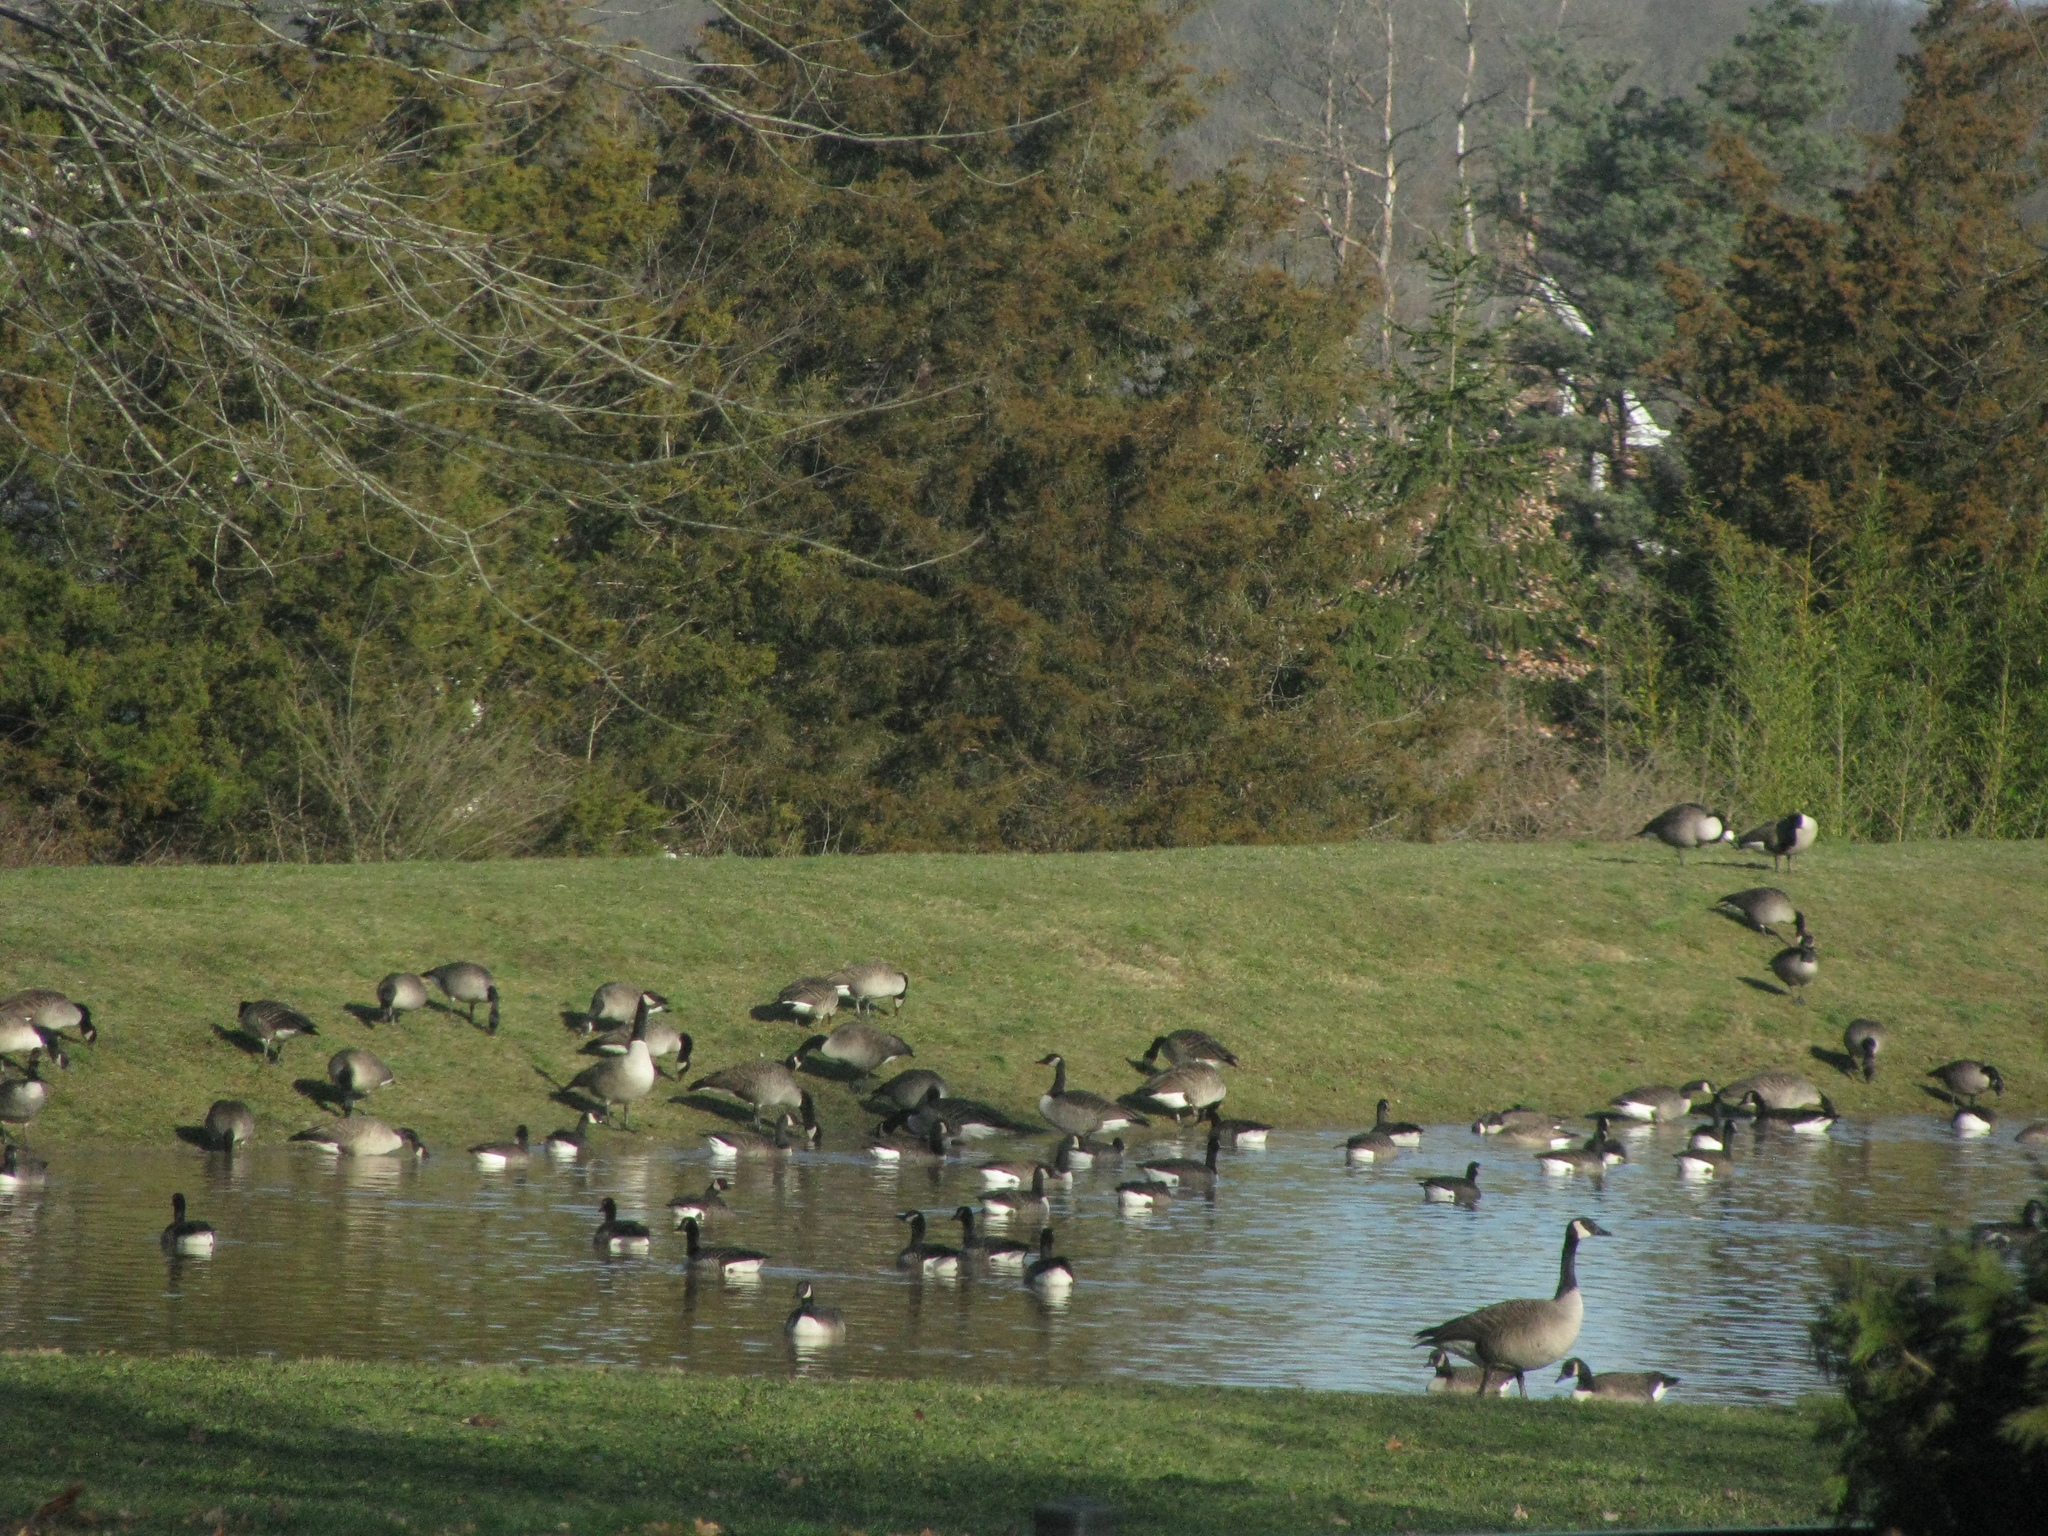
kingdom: Animalia
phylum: Chordata
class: Aves
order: Anseriformes
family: Anatidae
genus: Branta
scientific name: Branta canadensis
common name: Canada goose
